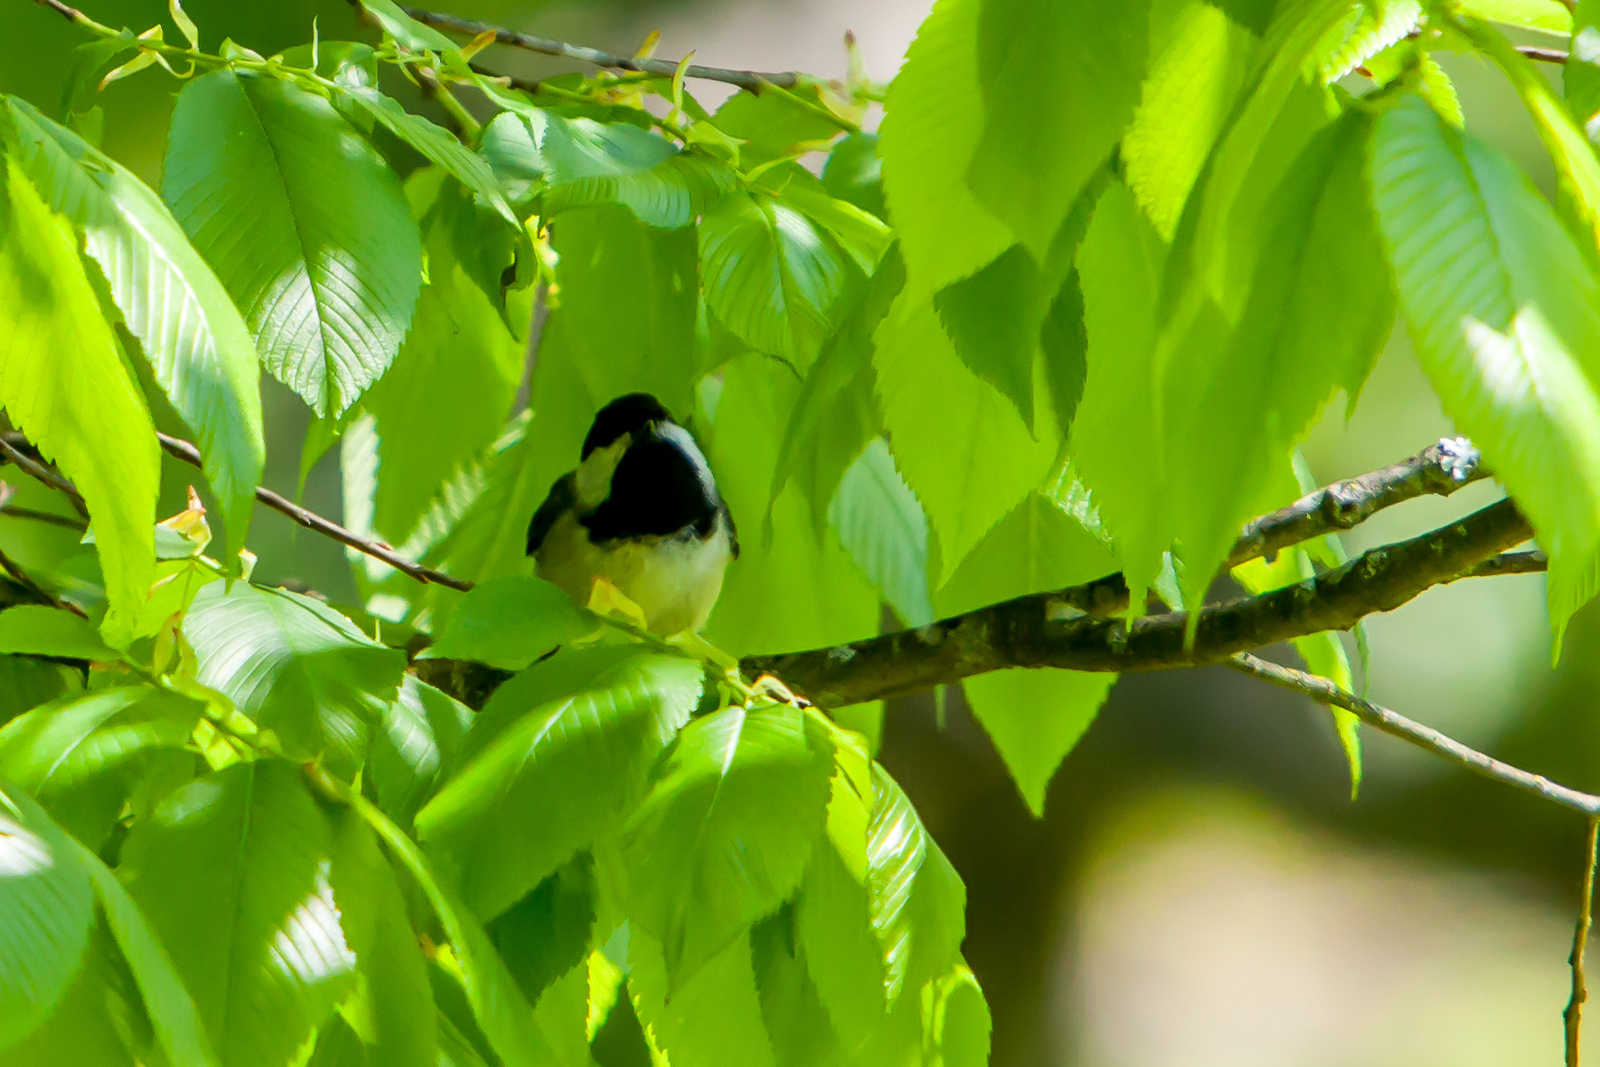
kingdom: Animalia
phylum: Chordata
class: Aves
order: Passeriformes
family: Paridae
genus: Poecile
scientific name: Poecile carolinensis
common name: Carolina chickadee
